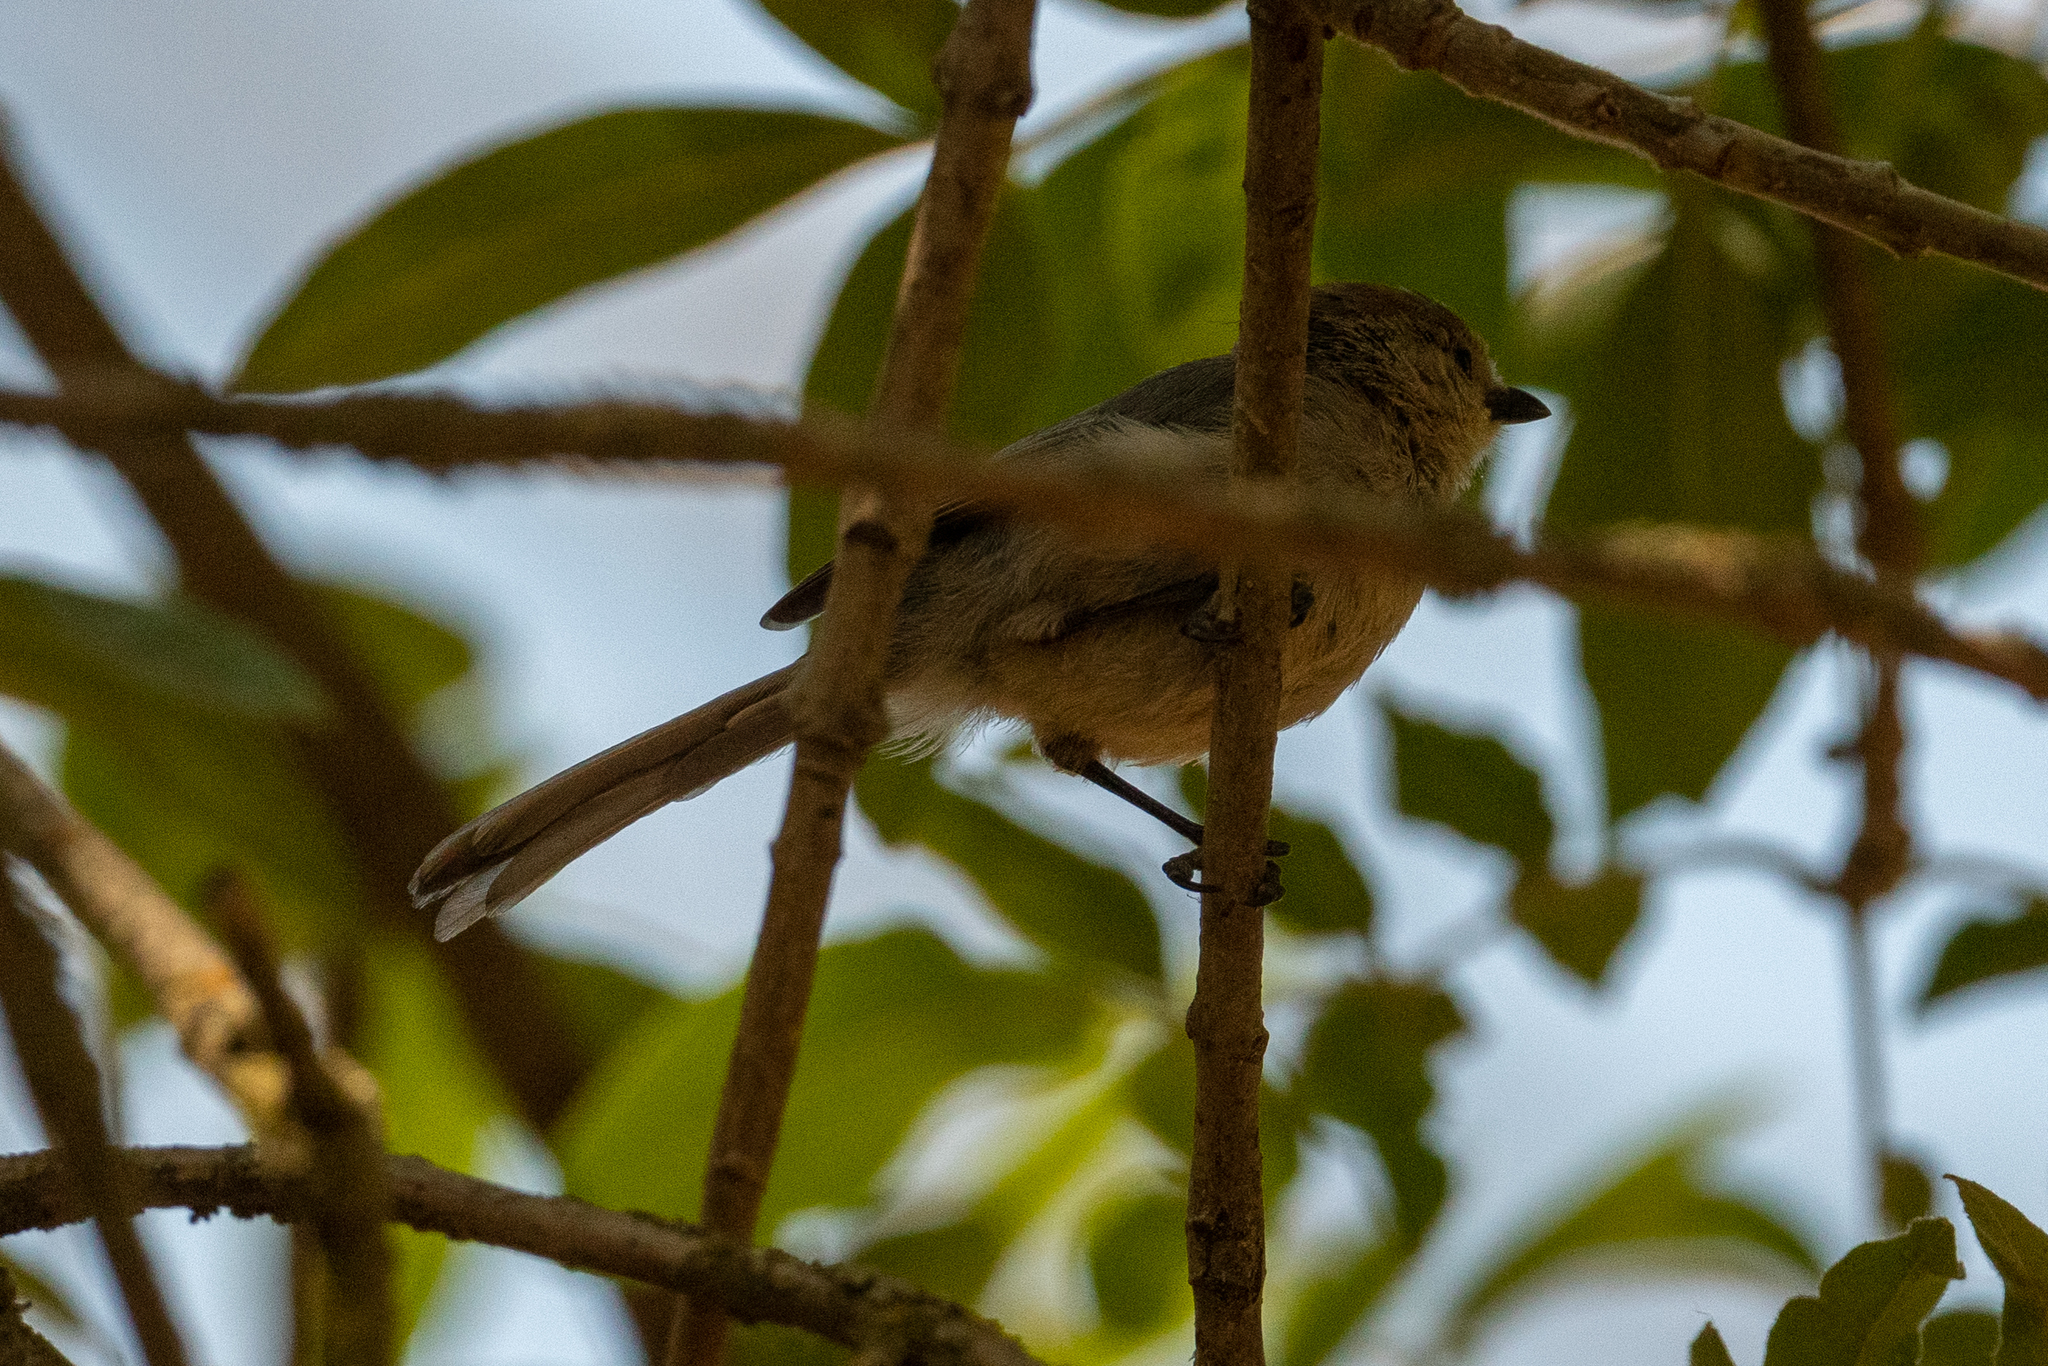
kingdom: Animalia
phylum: Chordata
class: Aves
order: Passeriformes
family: Aegithalidae
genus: Psaltriparus
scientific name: Psaltriparus minimus
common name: American bushtit
